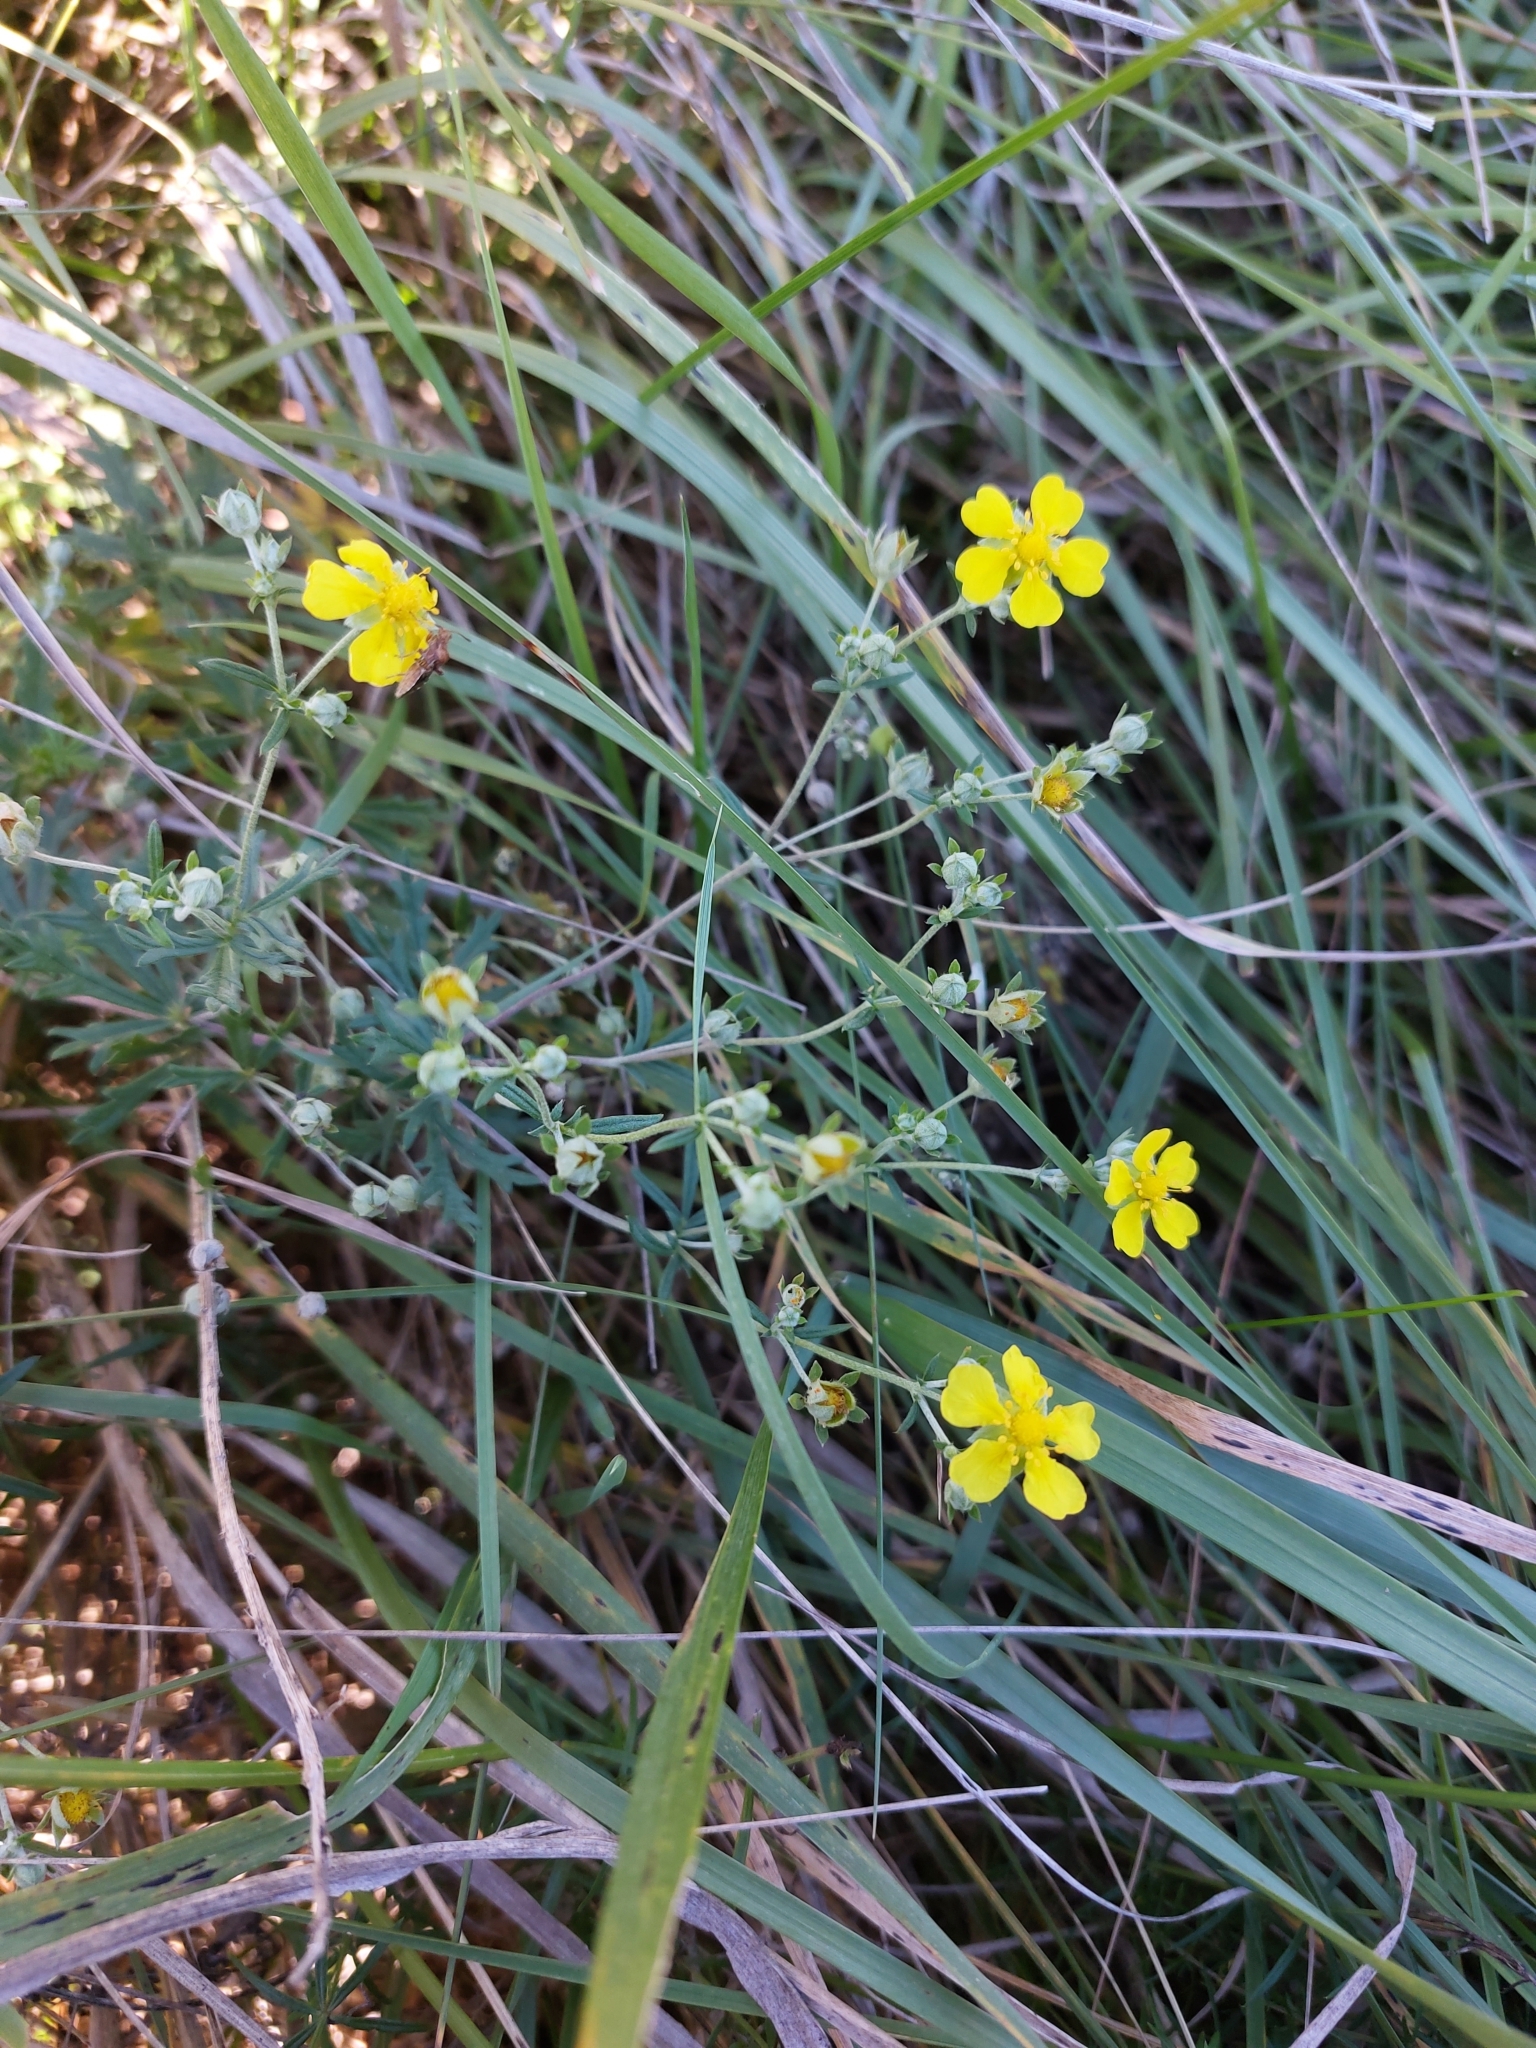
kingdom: Plantae
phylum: Tracheophyta
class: Magnoliopsida
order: Rosales
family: Rosaceae
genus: Potentilla
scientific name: Potentilla argentea
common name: Hoary cinquefoil
